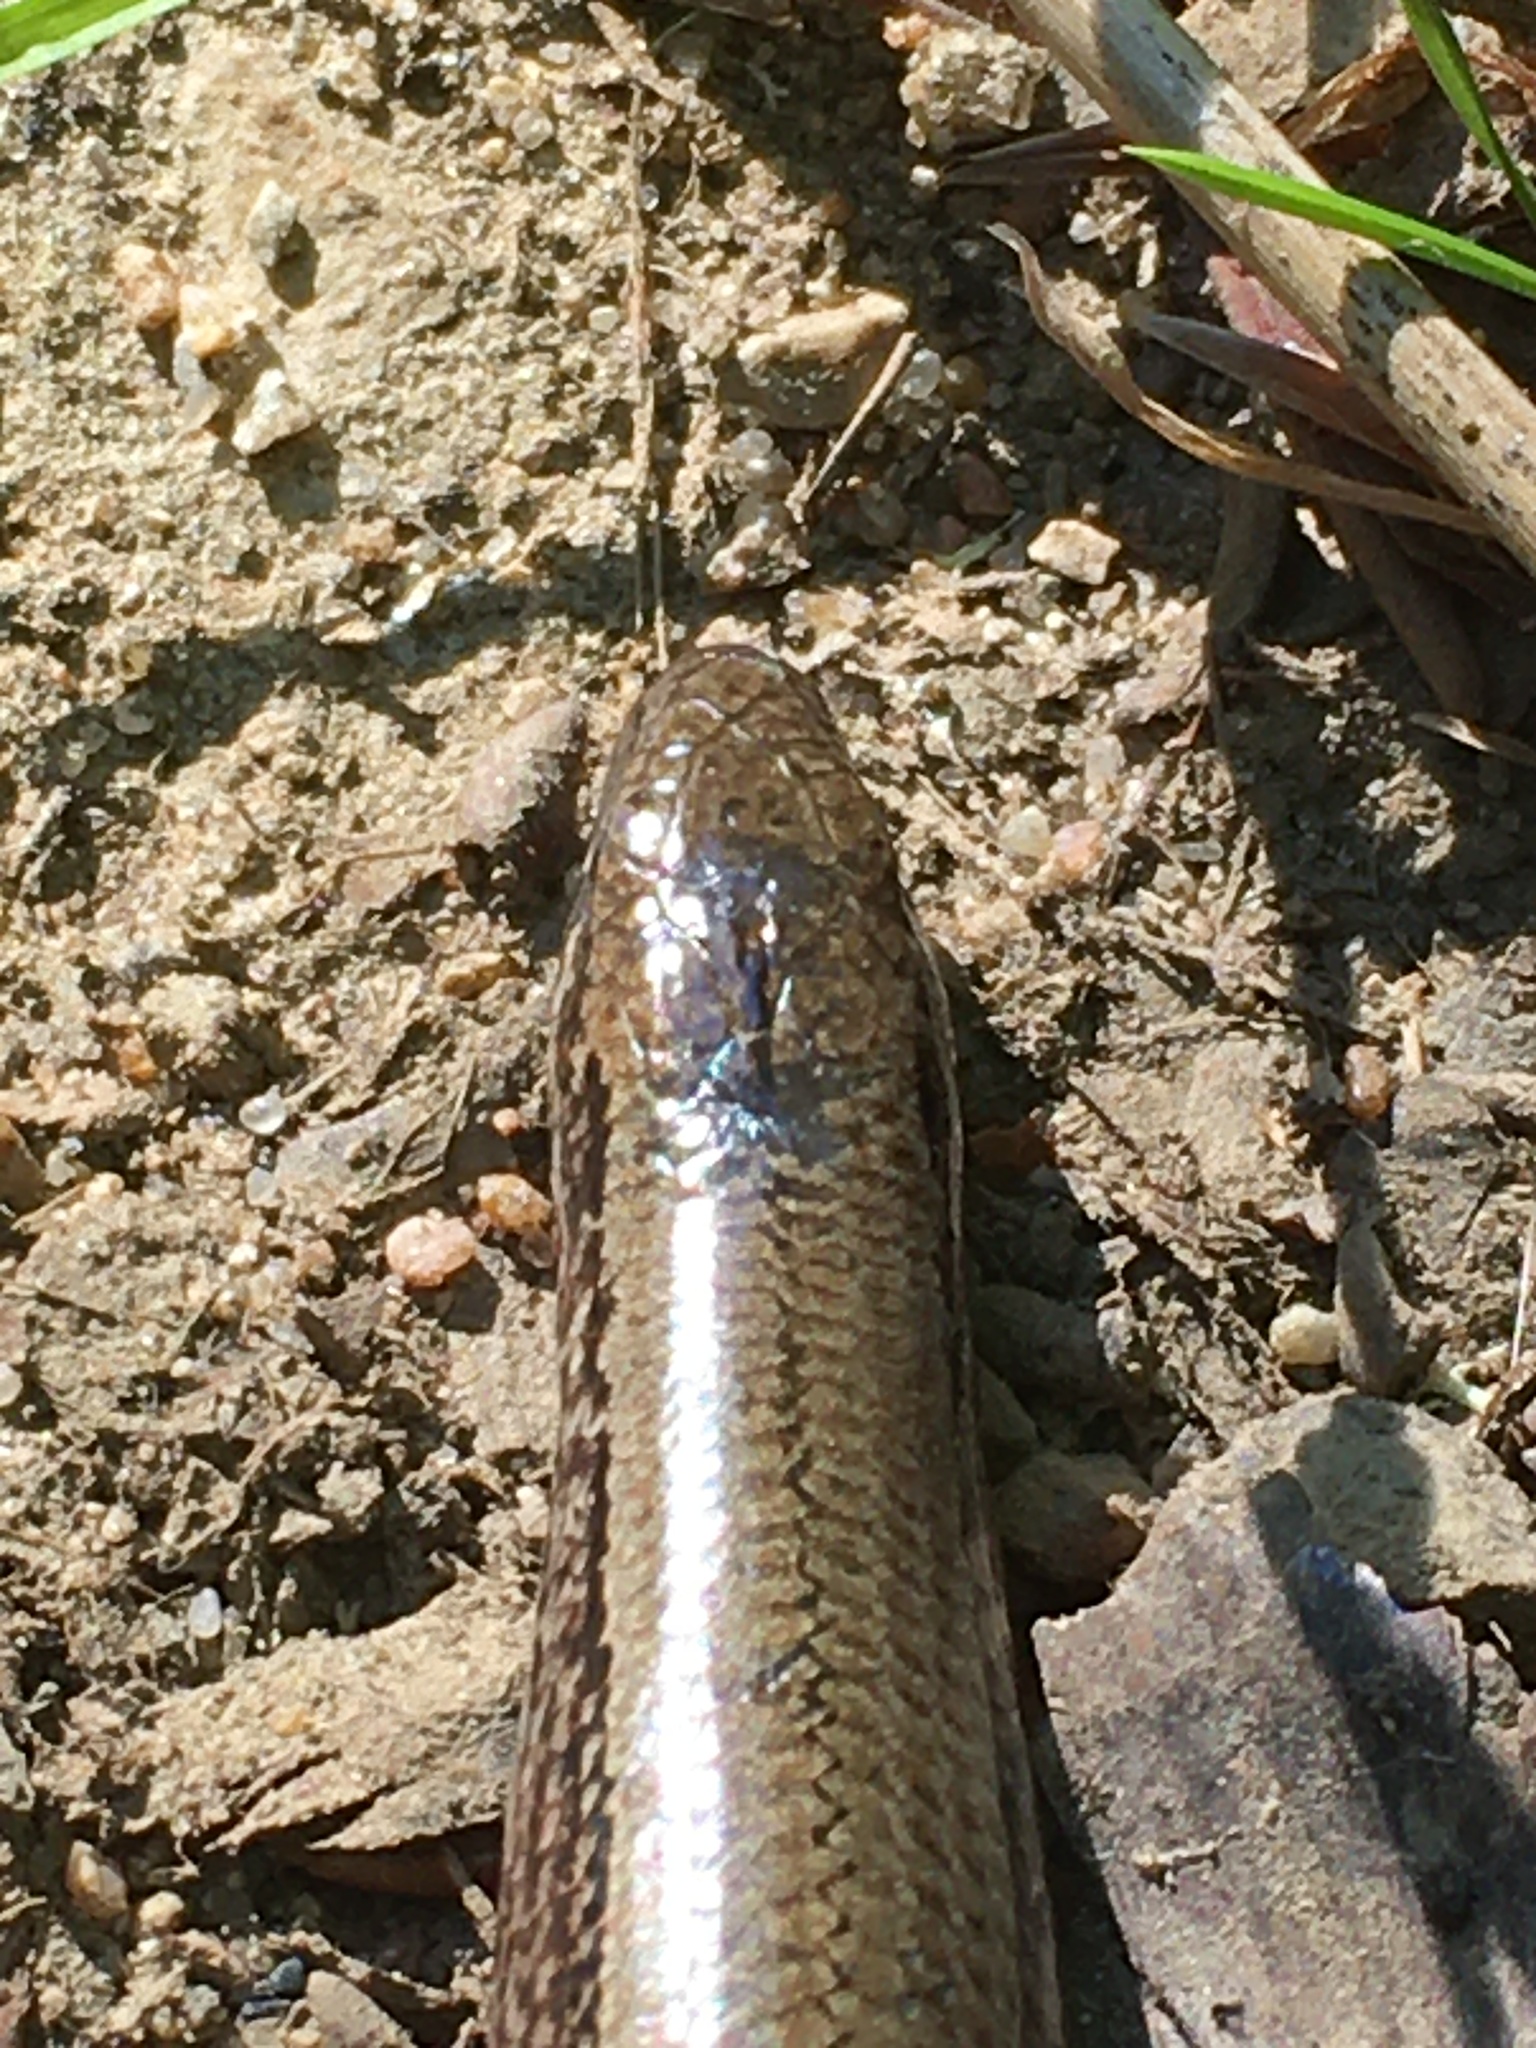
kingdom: Animalia
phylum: Chordata
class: Squamata
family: Anguidae
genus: Anguis
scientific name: Anguis fragilis
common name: Slow worm
